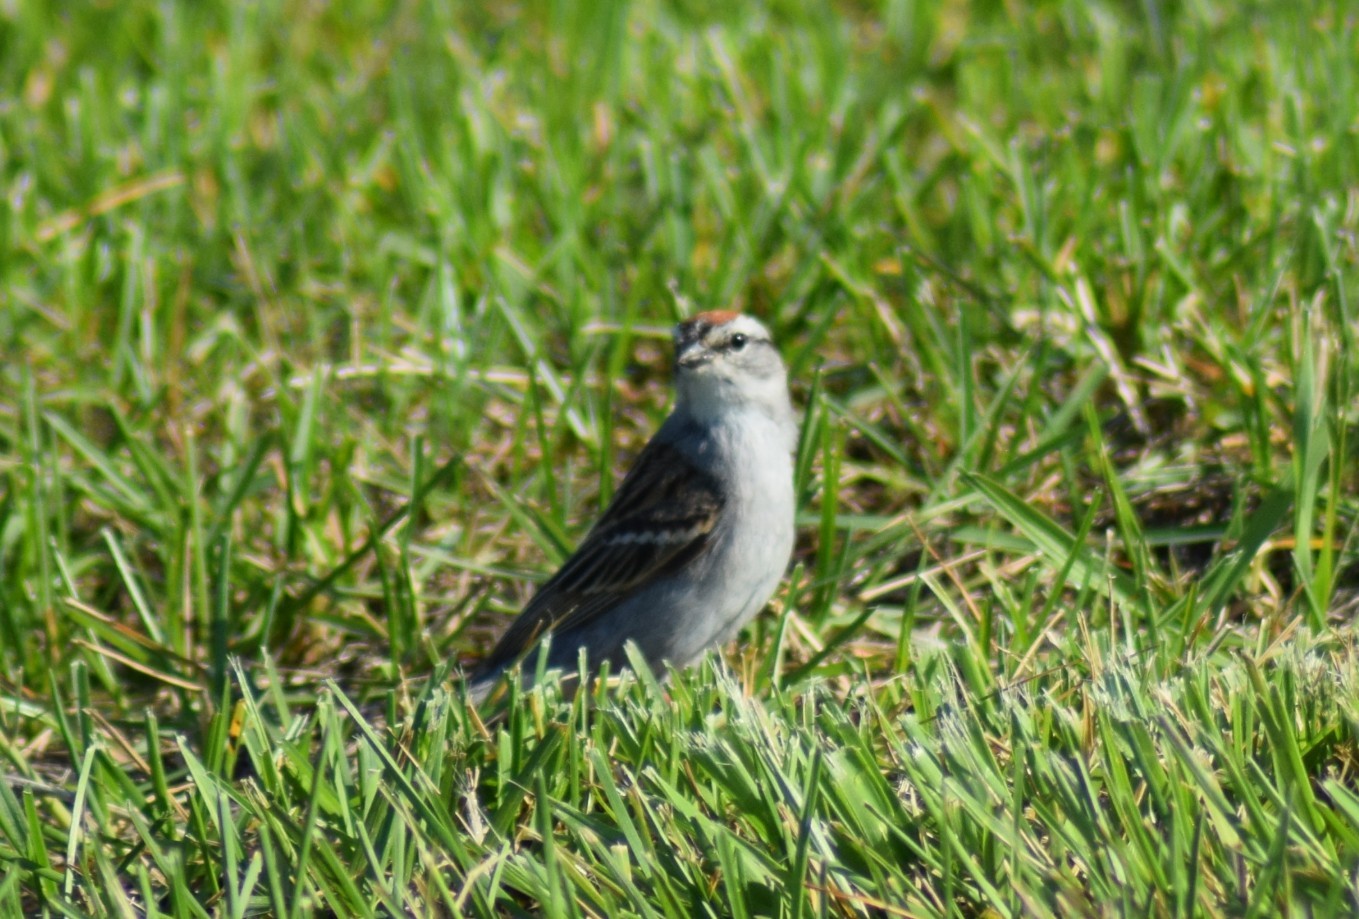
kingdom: Animalia
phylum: Chordata
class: Aves
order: Passeriformes
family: Passerellidae
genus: Spizella
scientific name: Spizella passerina
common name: Chipping sparrow
